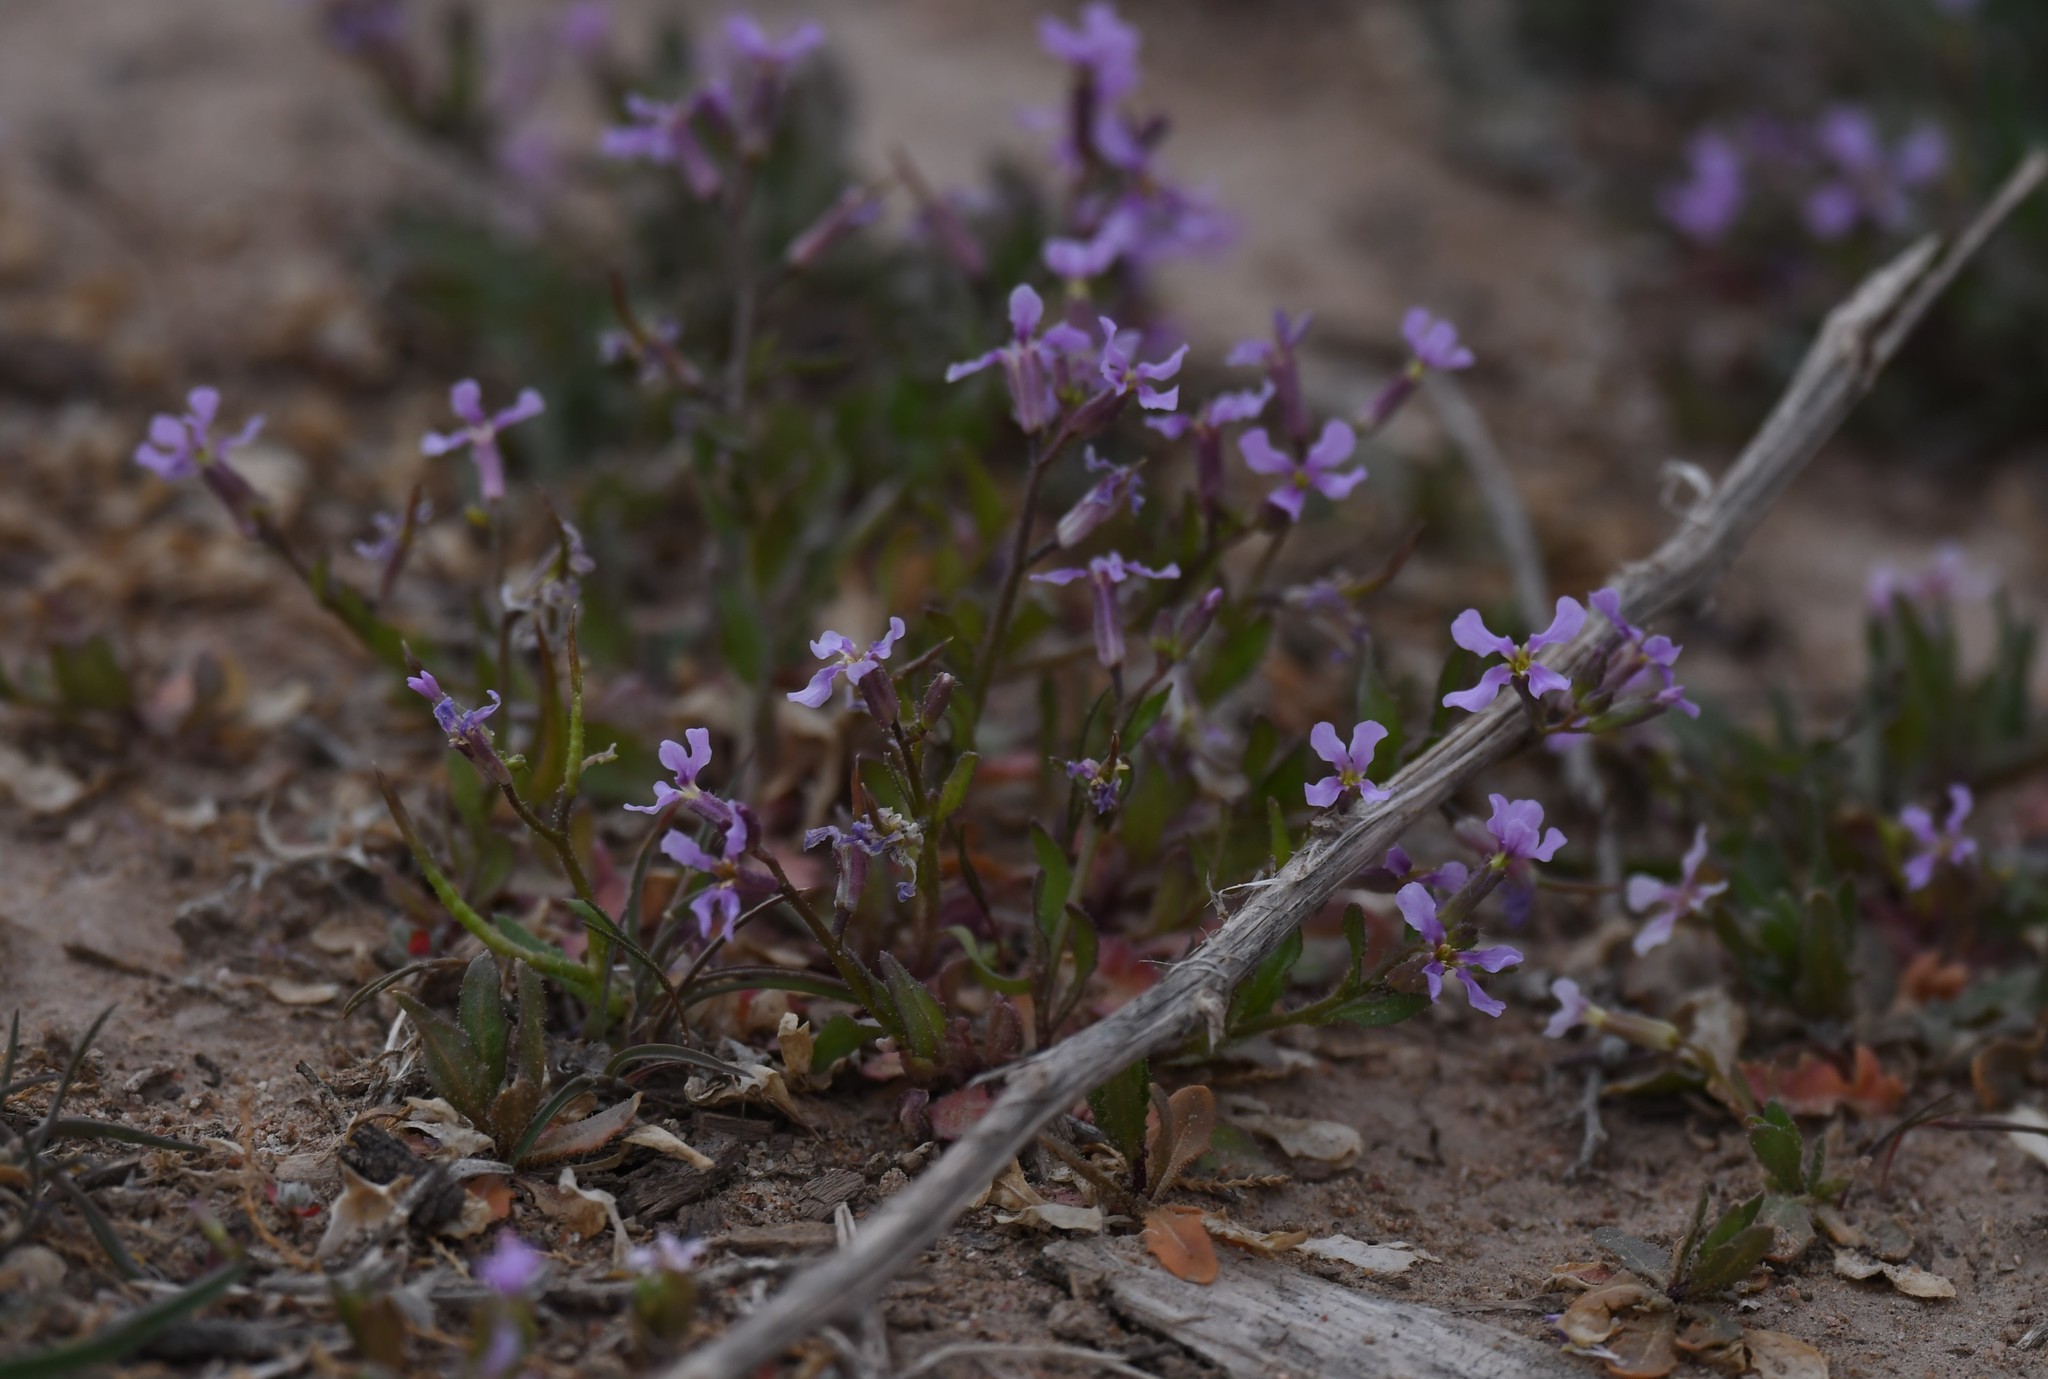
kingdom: Plantae
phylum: Tracheophyta
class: Magnoliopsida
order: Brassicales
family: Brassicaceae
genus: Chorispora
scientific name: Chorispora tenella
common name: Crossflower
